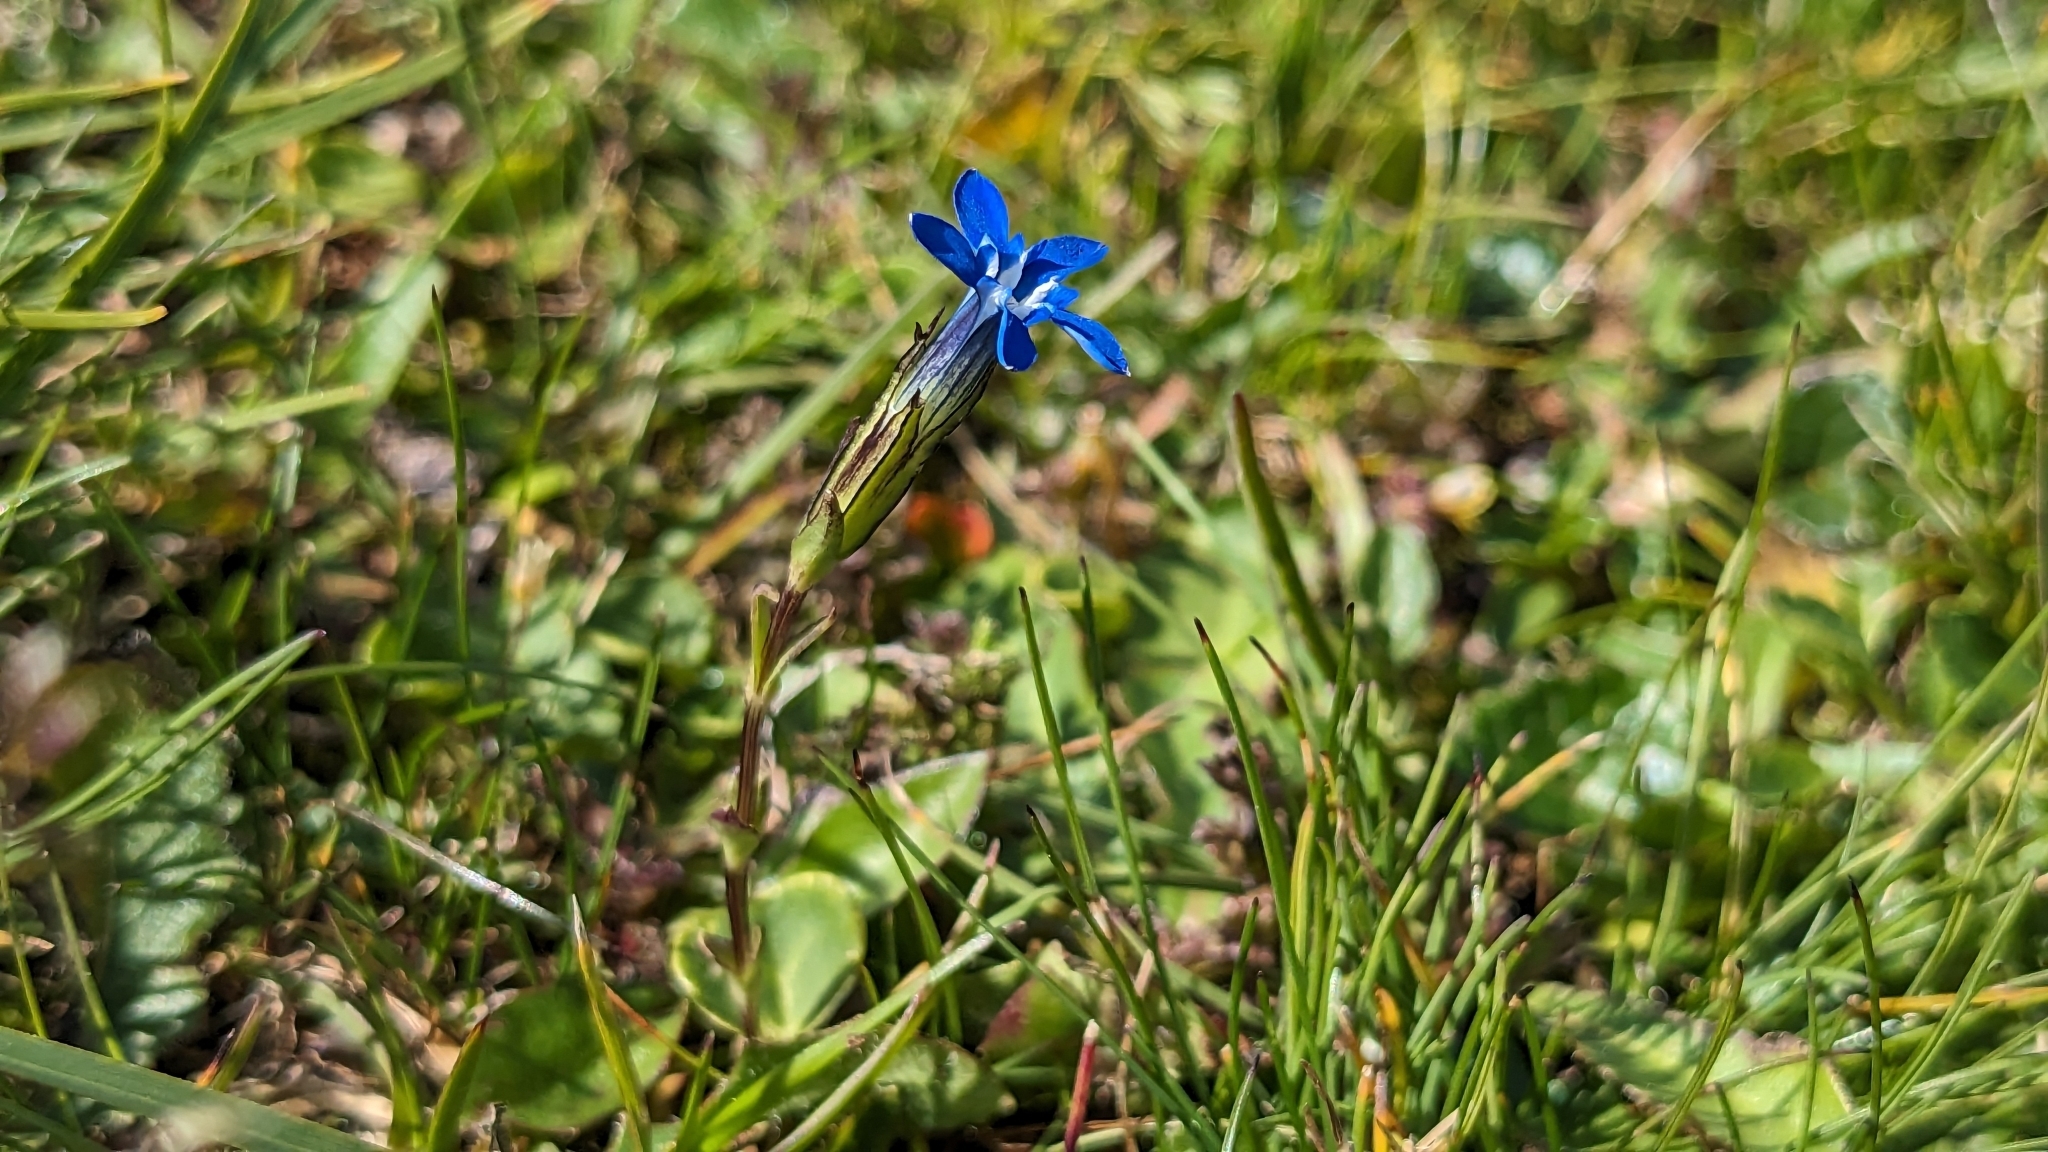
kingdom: Plantae
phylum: Tracheophyta
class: Magnoliopsida
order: Gentianales
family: Gentianaceae
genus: Gentiana
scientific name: Gentiana nivalis
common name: Alpine gentian
